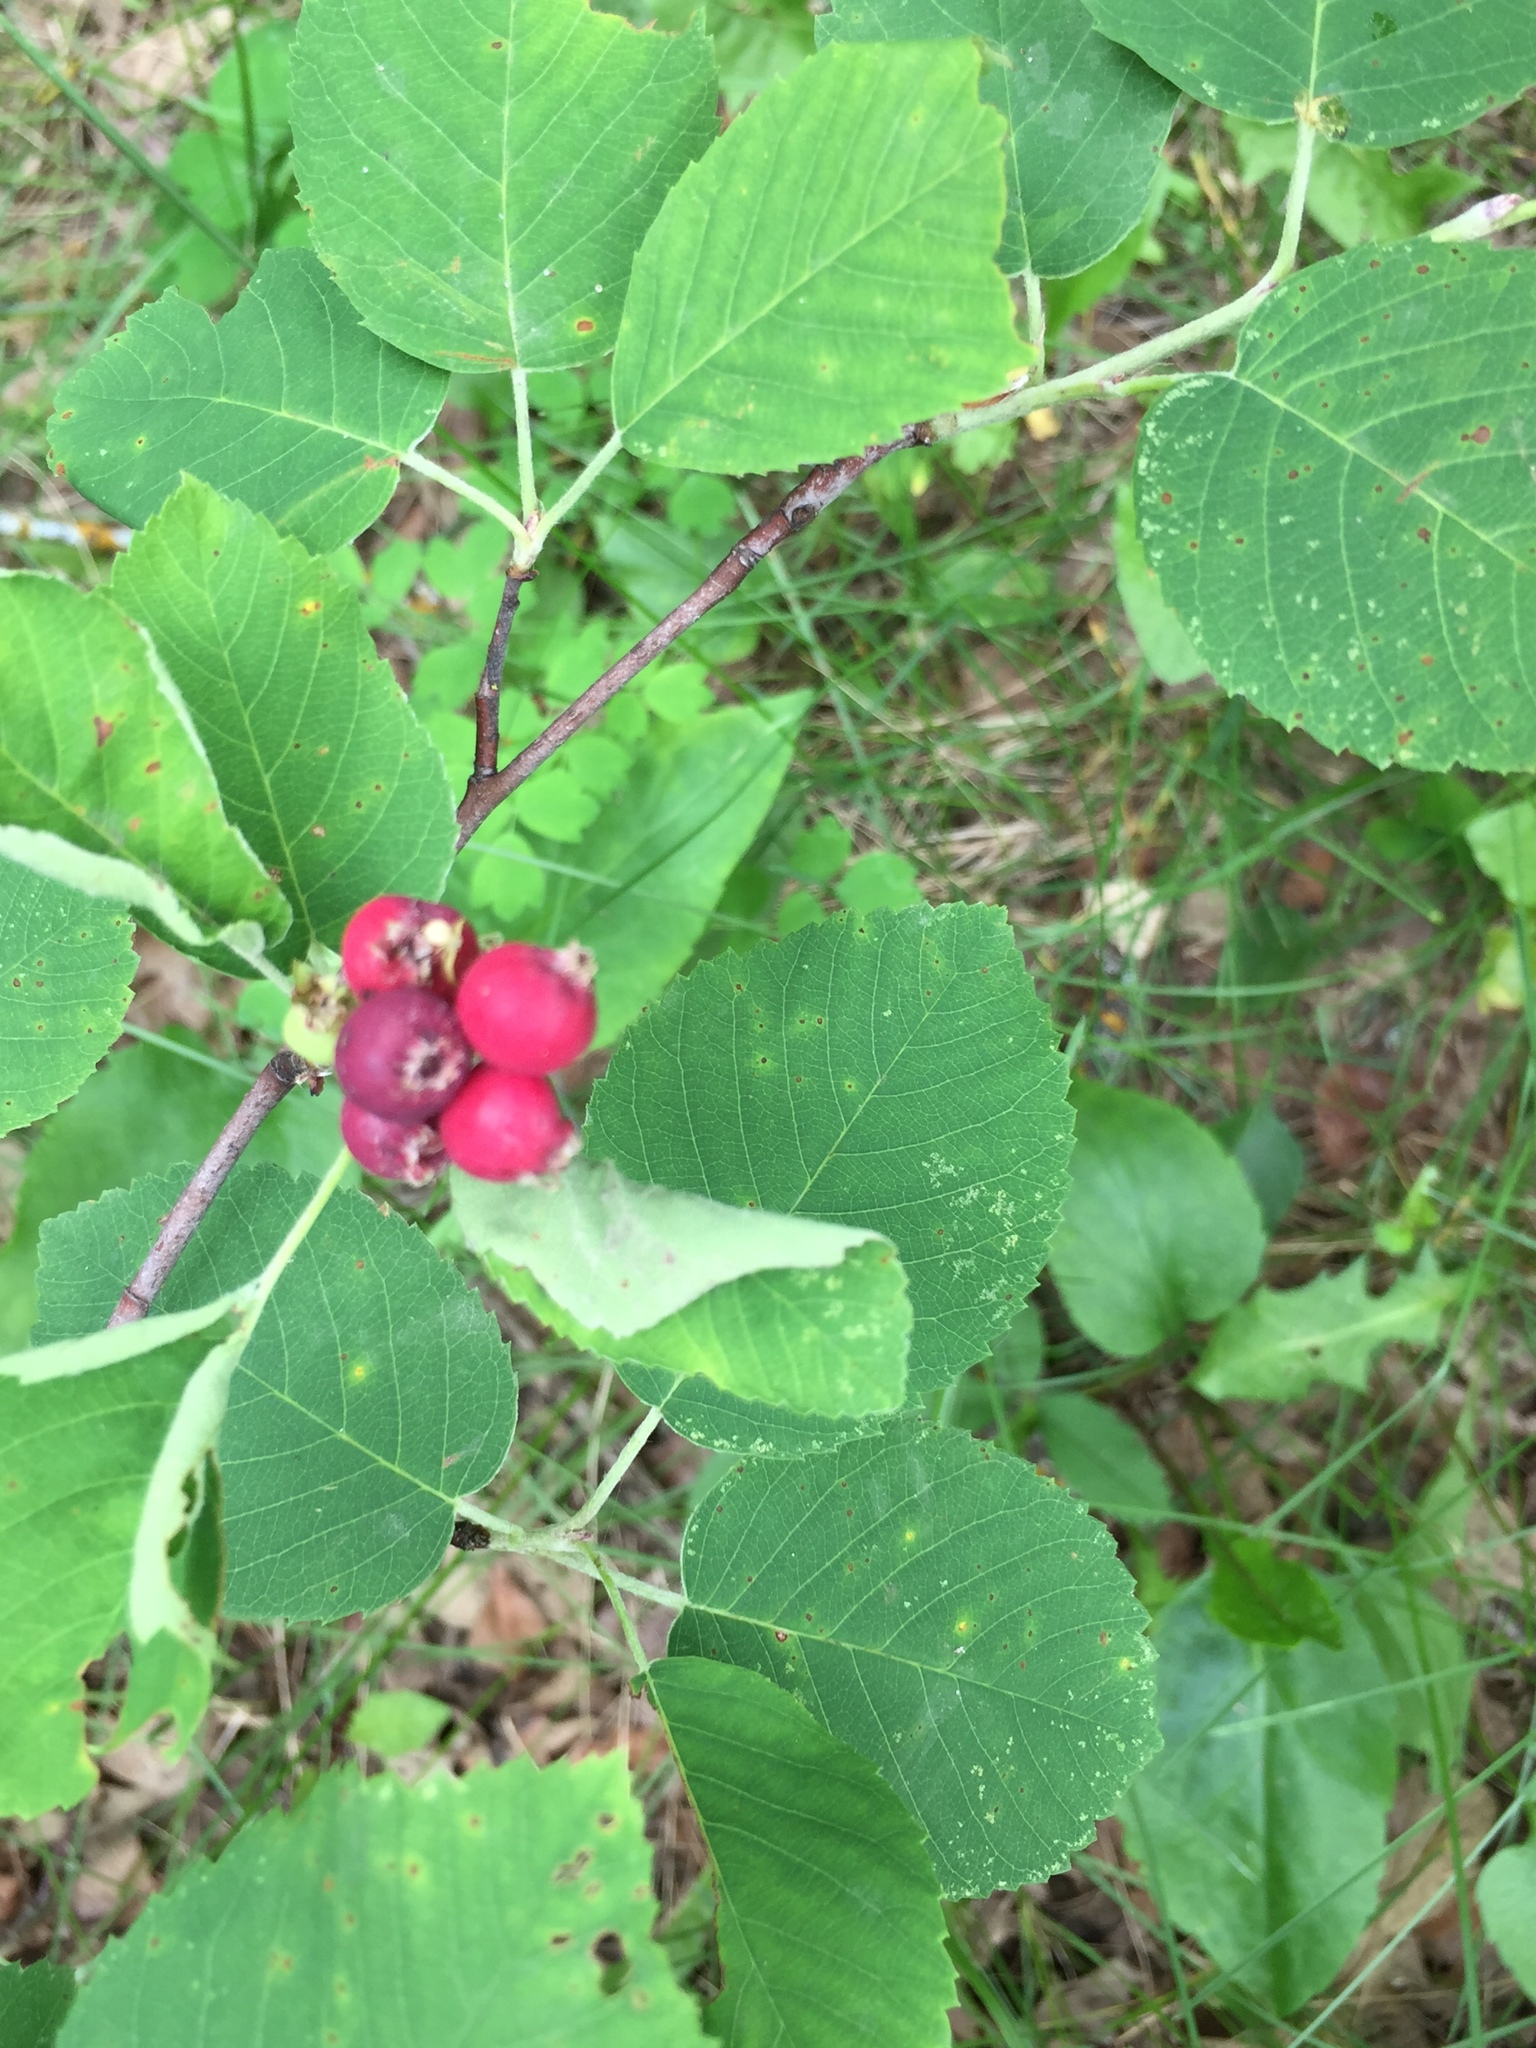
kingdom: Plantae
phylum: Tracheophyta
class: Magnoliopsida
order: Rosales
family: Rosaceae
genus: Amelanchier
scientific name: Amelanchier alnifolia
